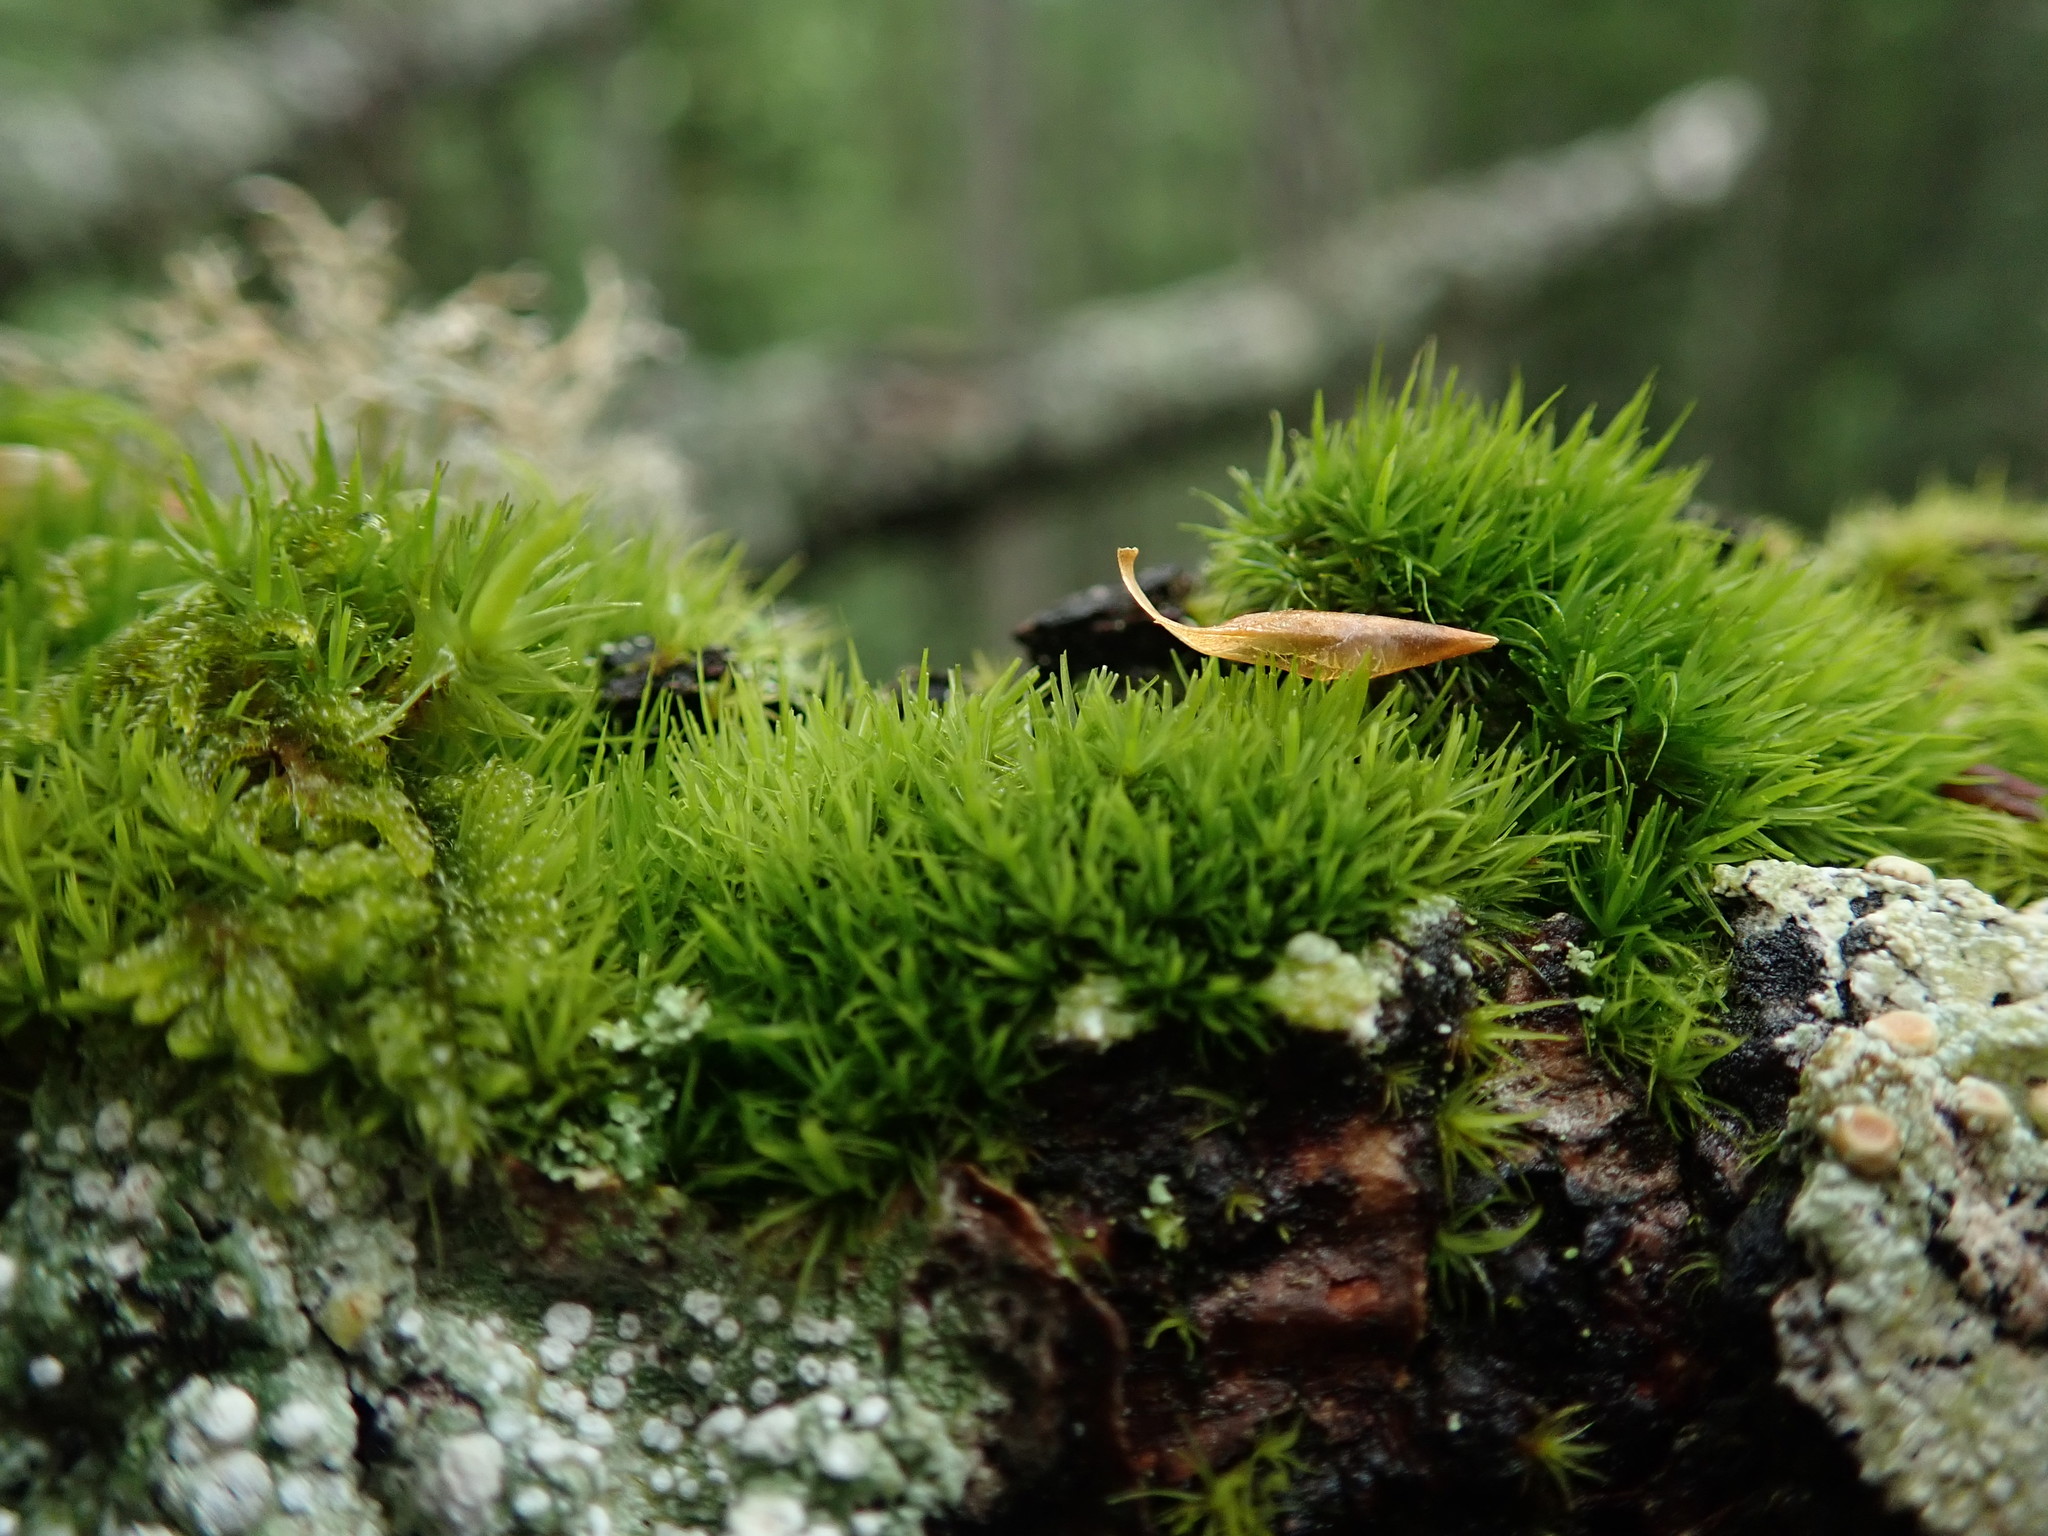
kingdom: Plantae
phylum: Bryophyta
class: Bryopsida
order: Dicranales
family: Dicranaceae
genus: Orthodicranum
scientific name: Orthodicranum tauricum
